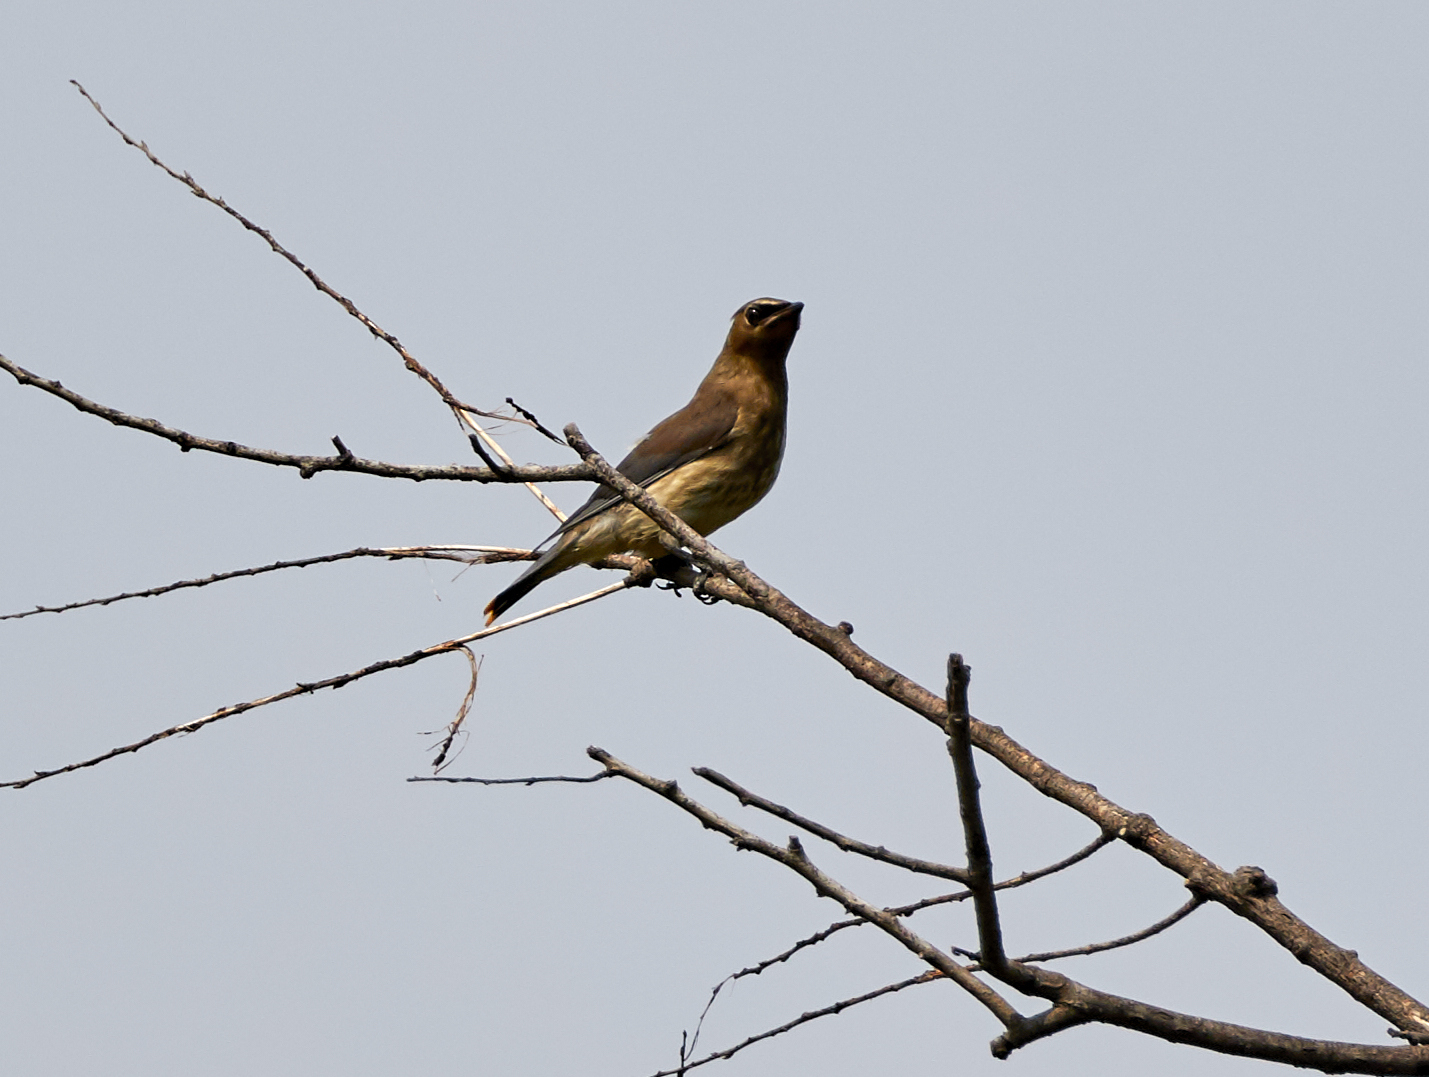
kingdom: Animalia
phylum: Chordata
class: Aves
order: Passeriformes
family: Bombycillidae
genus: Bombycilla
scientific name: Bombycilla cedrorum
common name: Cedar waxwing
